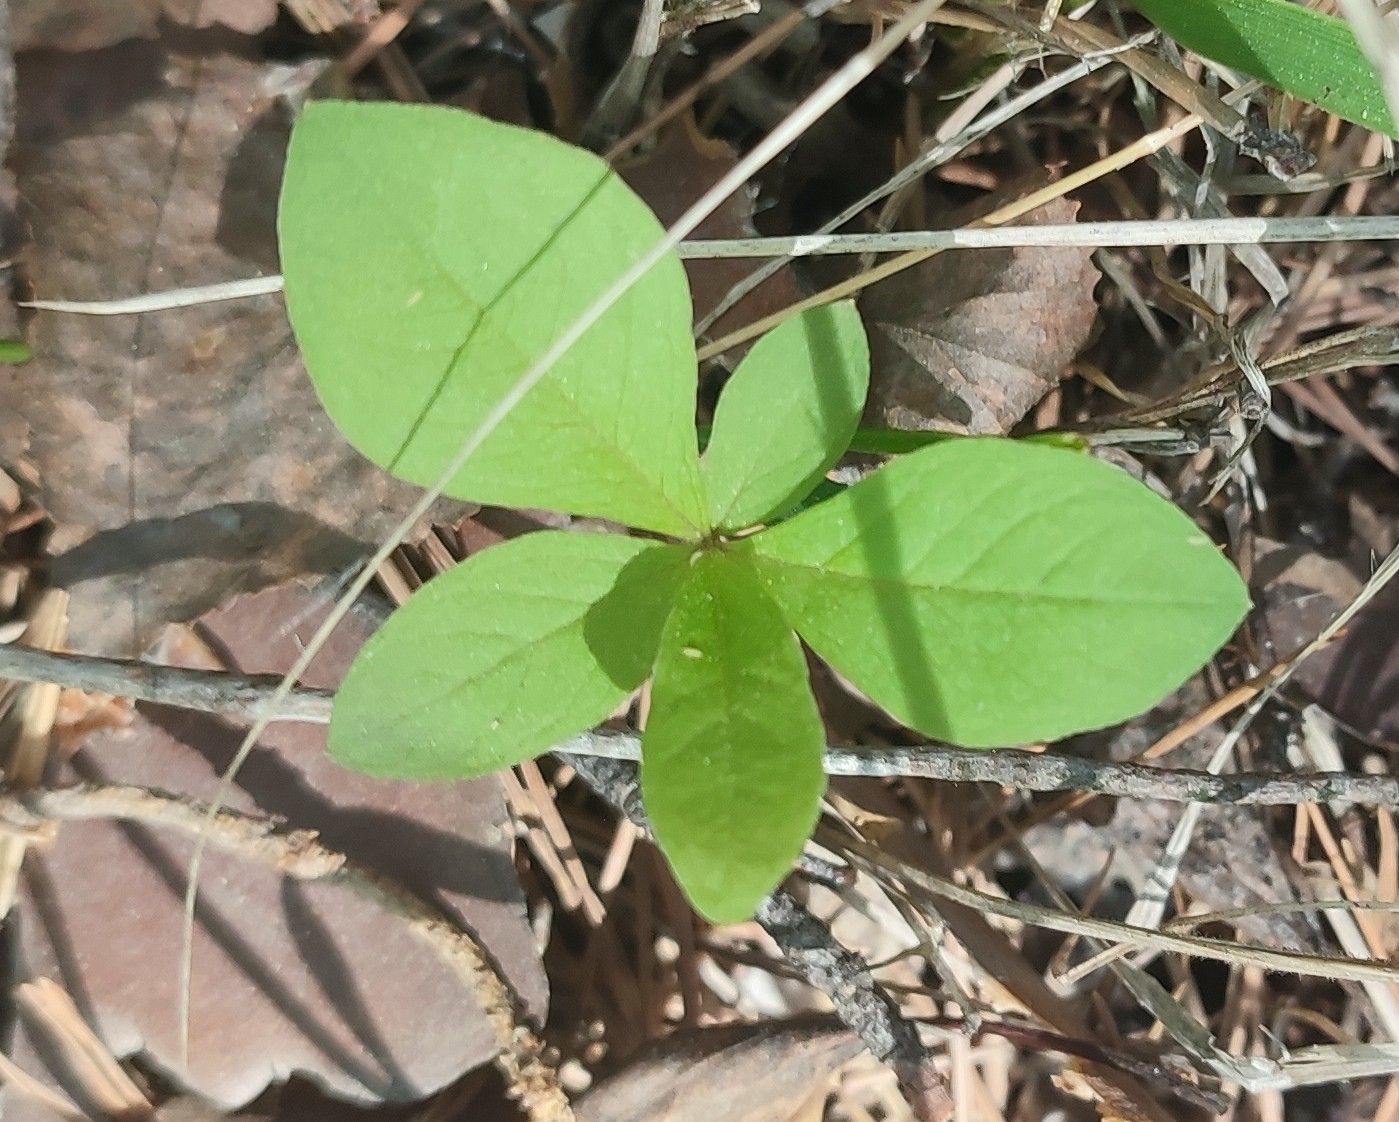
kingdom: Plantae
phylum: Tracheophyta
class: Magnoliopsida
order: Ericales
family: Primulaceae
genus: Lysimachia
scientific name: Lysimachia europaea
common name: Arctic starflower
